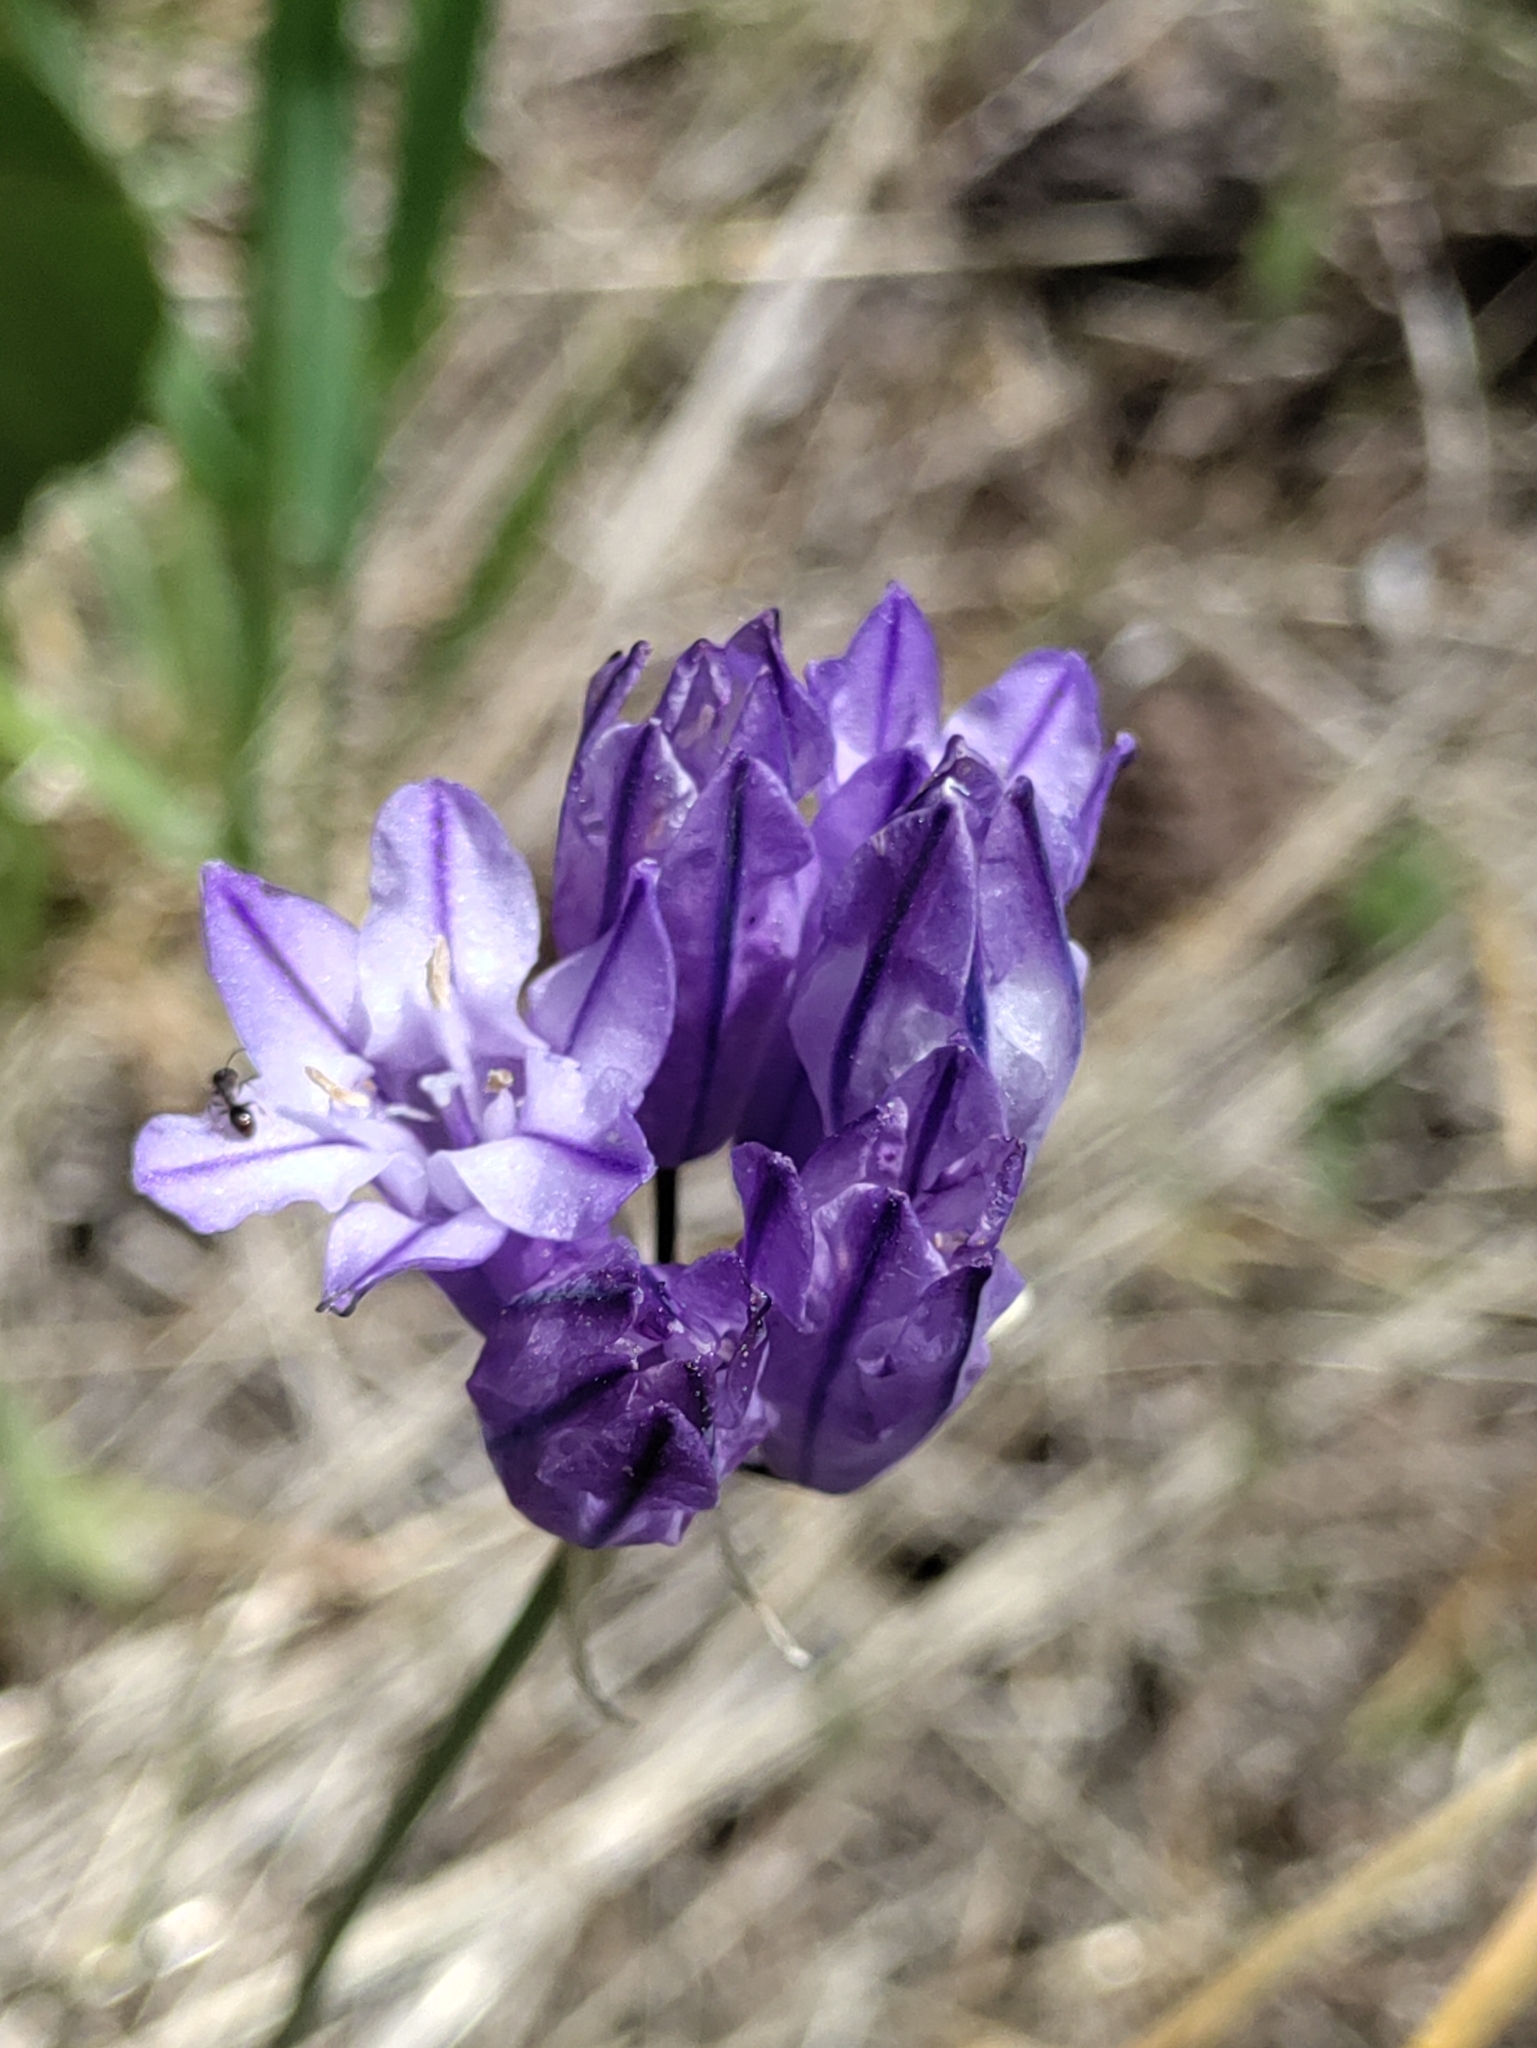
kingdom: Plantae
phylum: Tracheophyta
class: Liliopsida
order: Asparagales
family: Asparagaceae
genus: Triteleia
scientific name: Triteleia grandiflora
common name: Wild hyacinth
